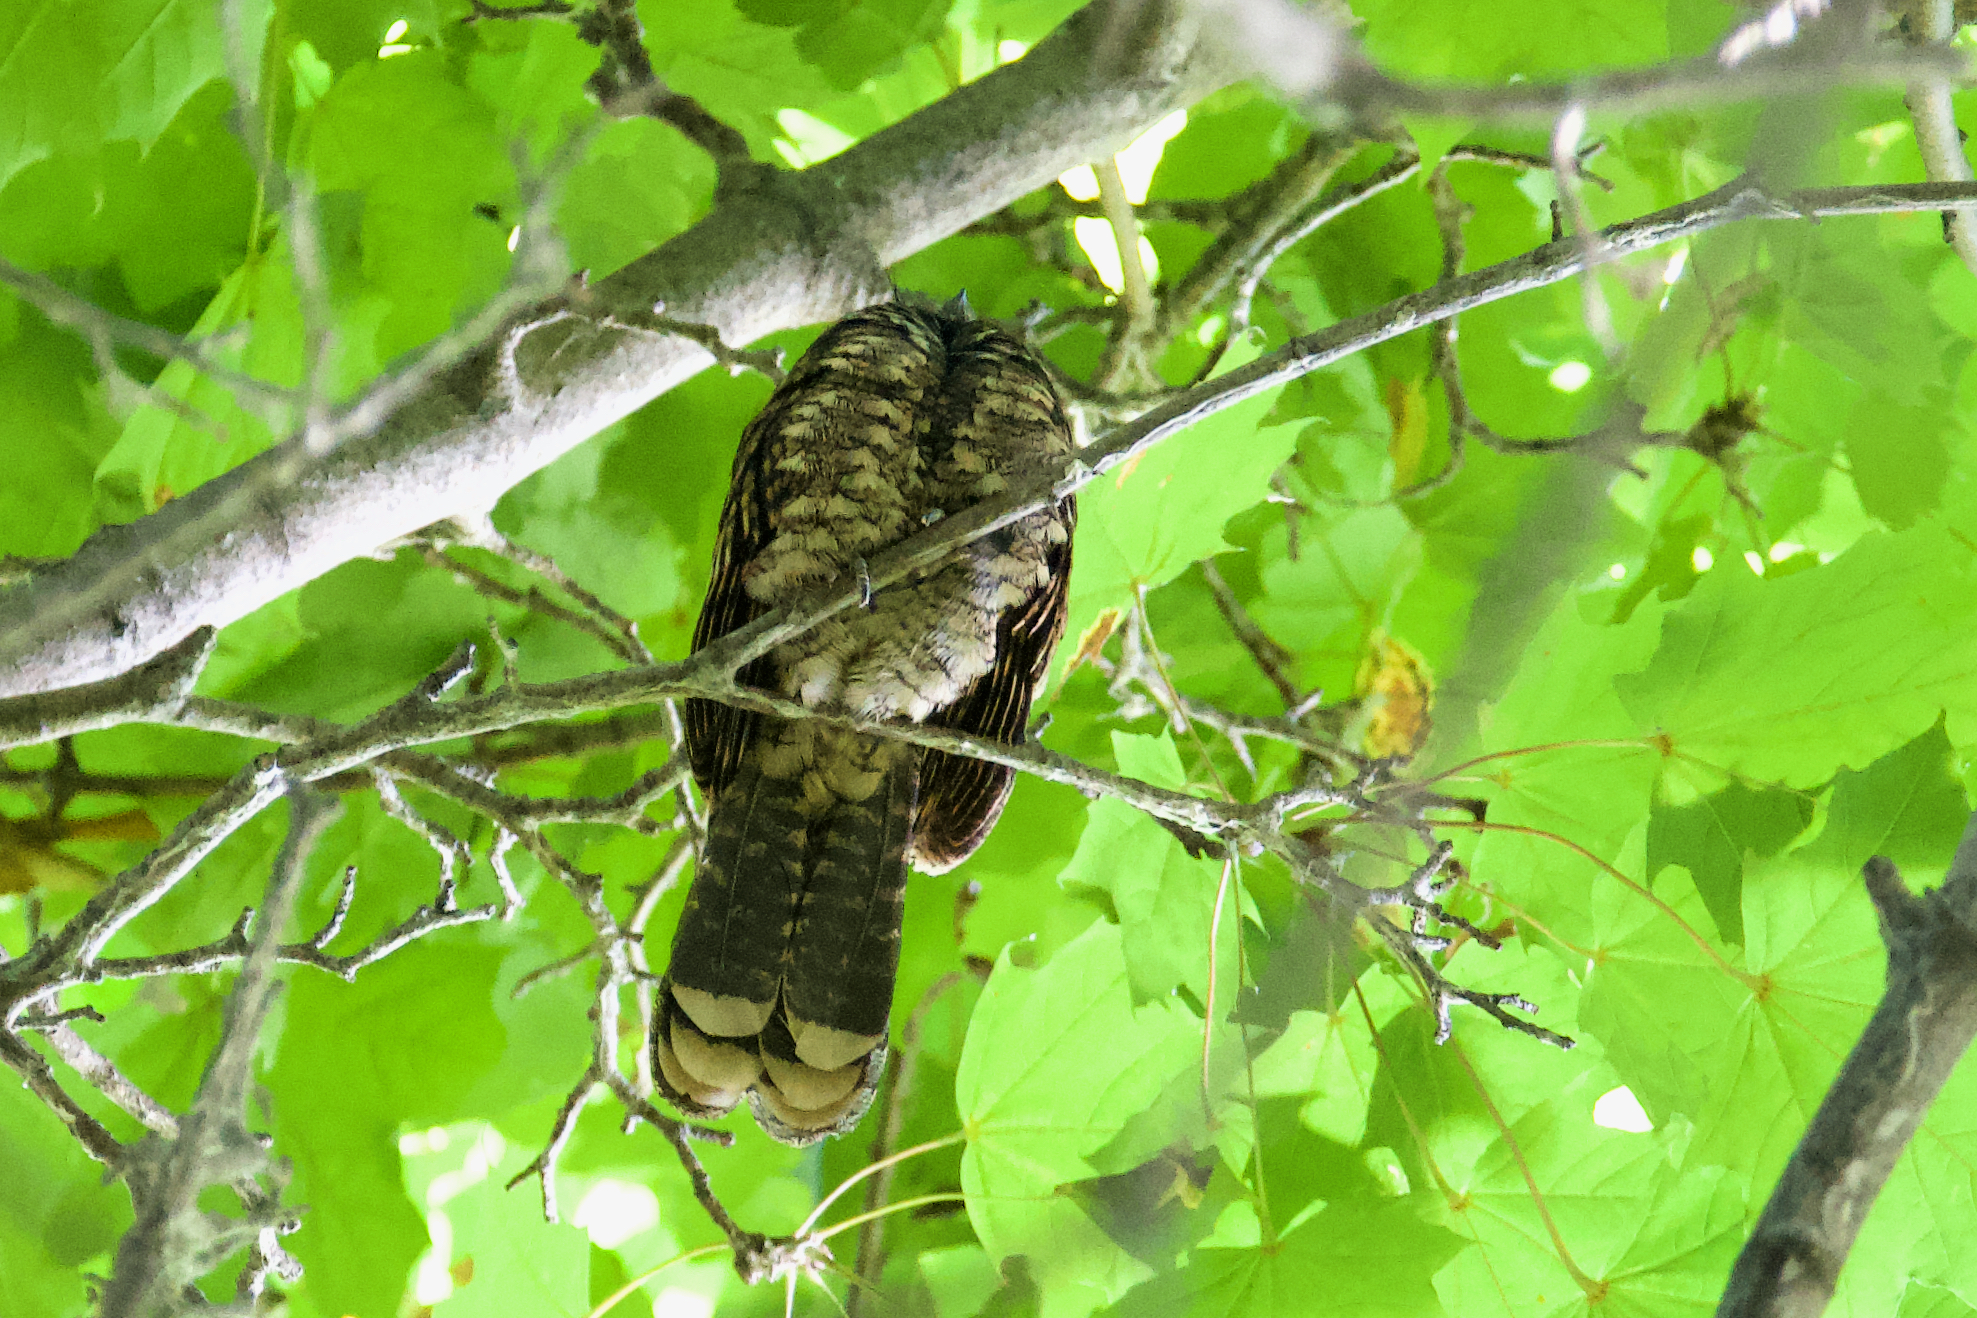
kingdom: Animalia
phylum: Chordata
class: Aves
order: Caprimulgiformes
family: Caprimulgidae
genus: Antrostomus
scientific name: Antrostomus vociferus
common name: Eastern whip-poor-will
